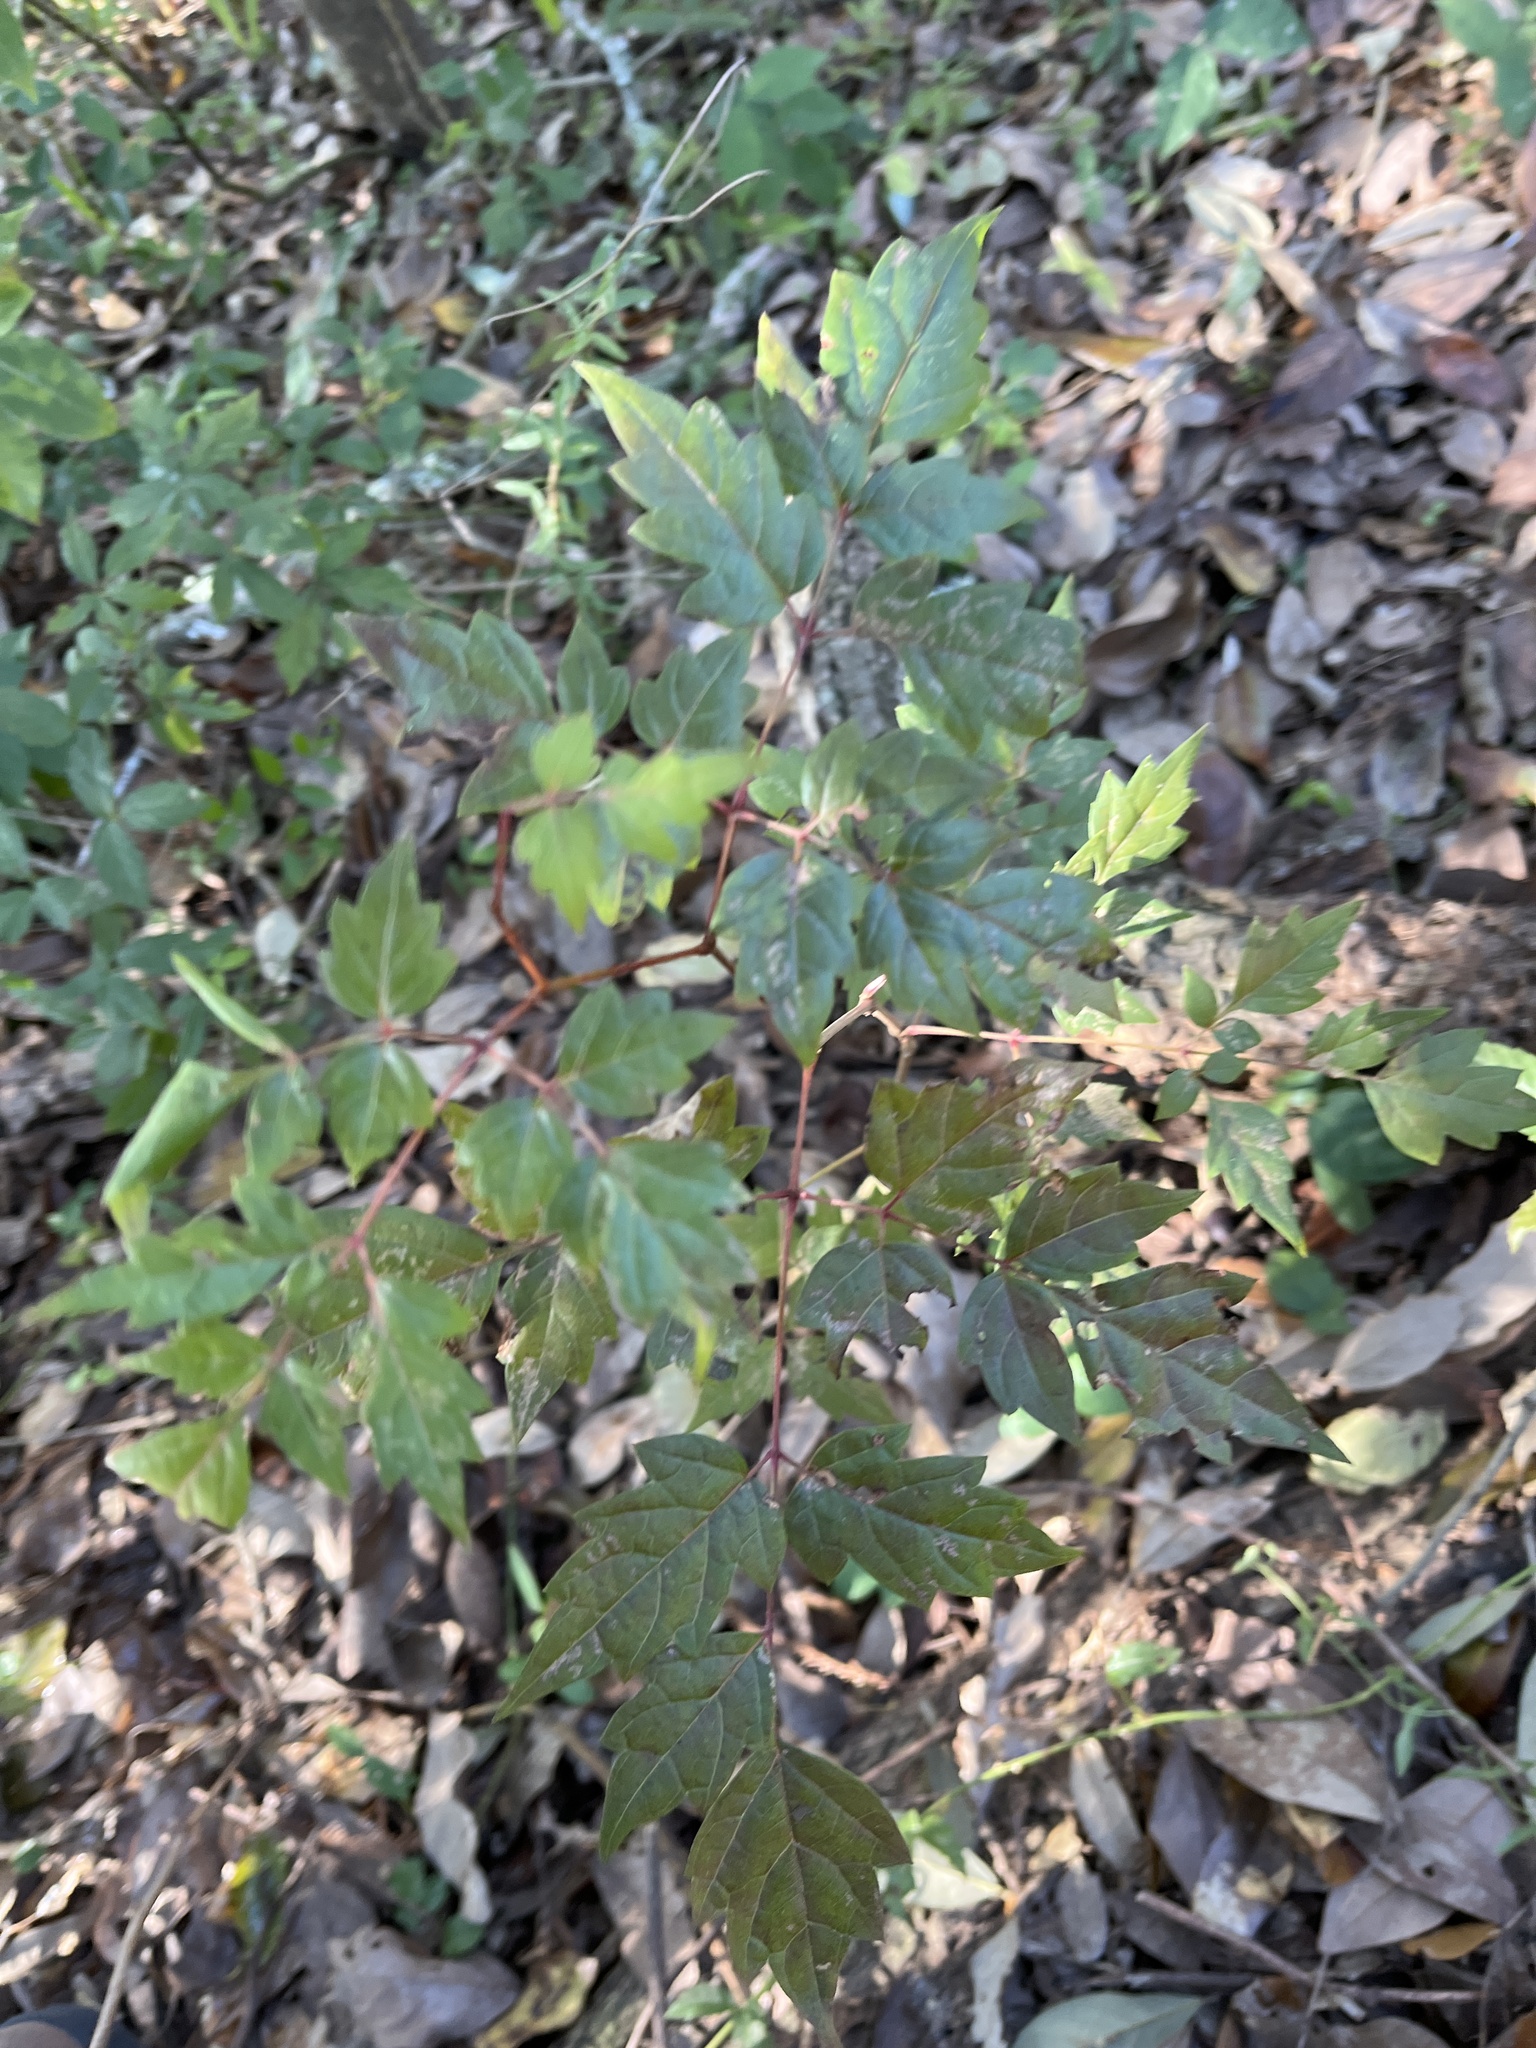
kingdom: Plantae
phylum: Tracheophyta
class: Magnoliopsida
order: Vitales
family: Vitaceae
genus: Nekemias
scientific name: Nekemias arborea
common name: Peppervine
